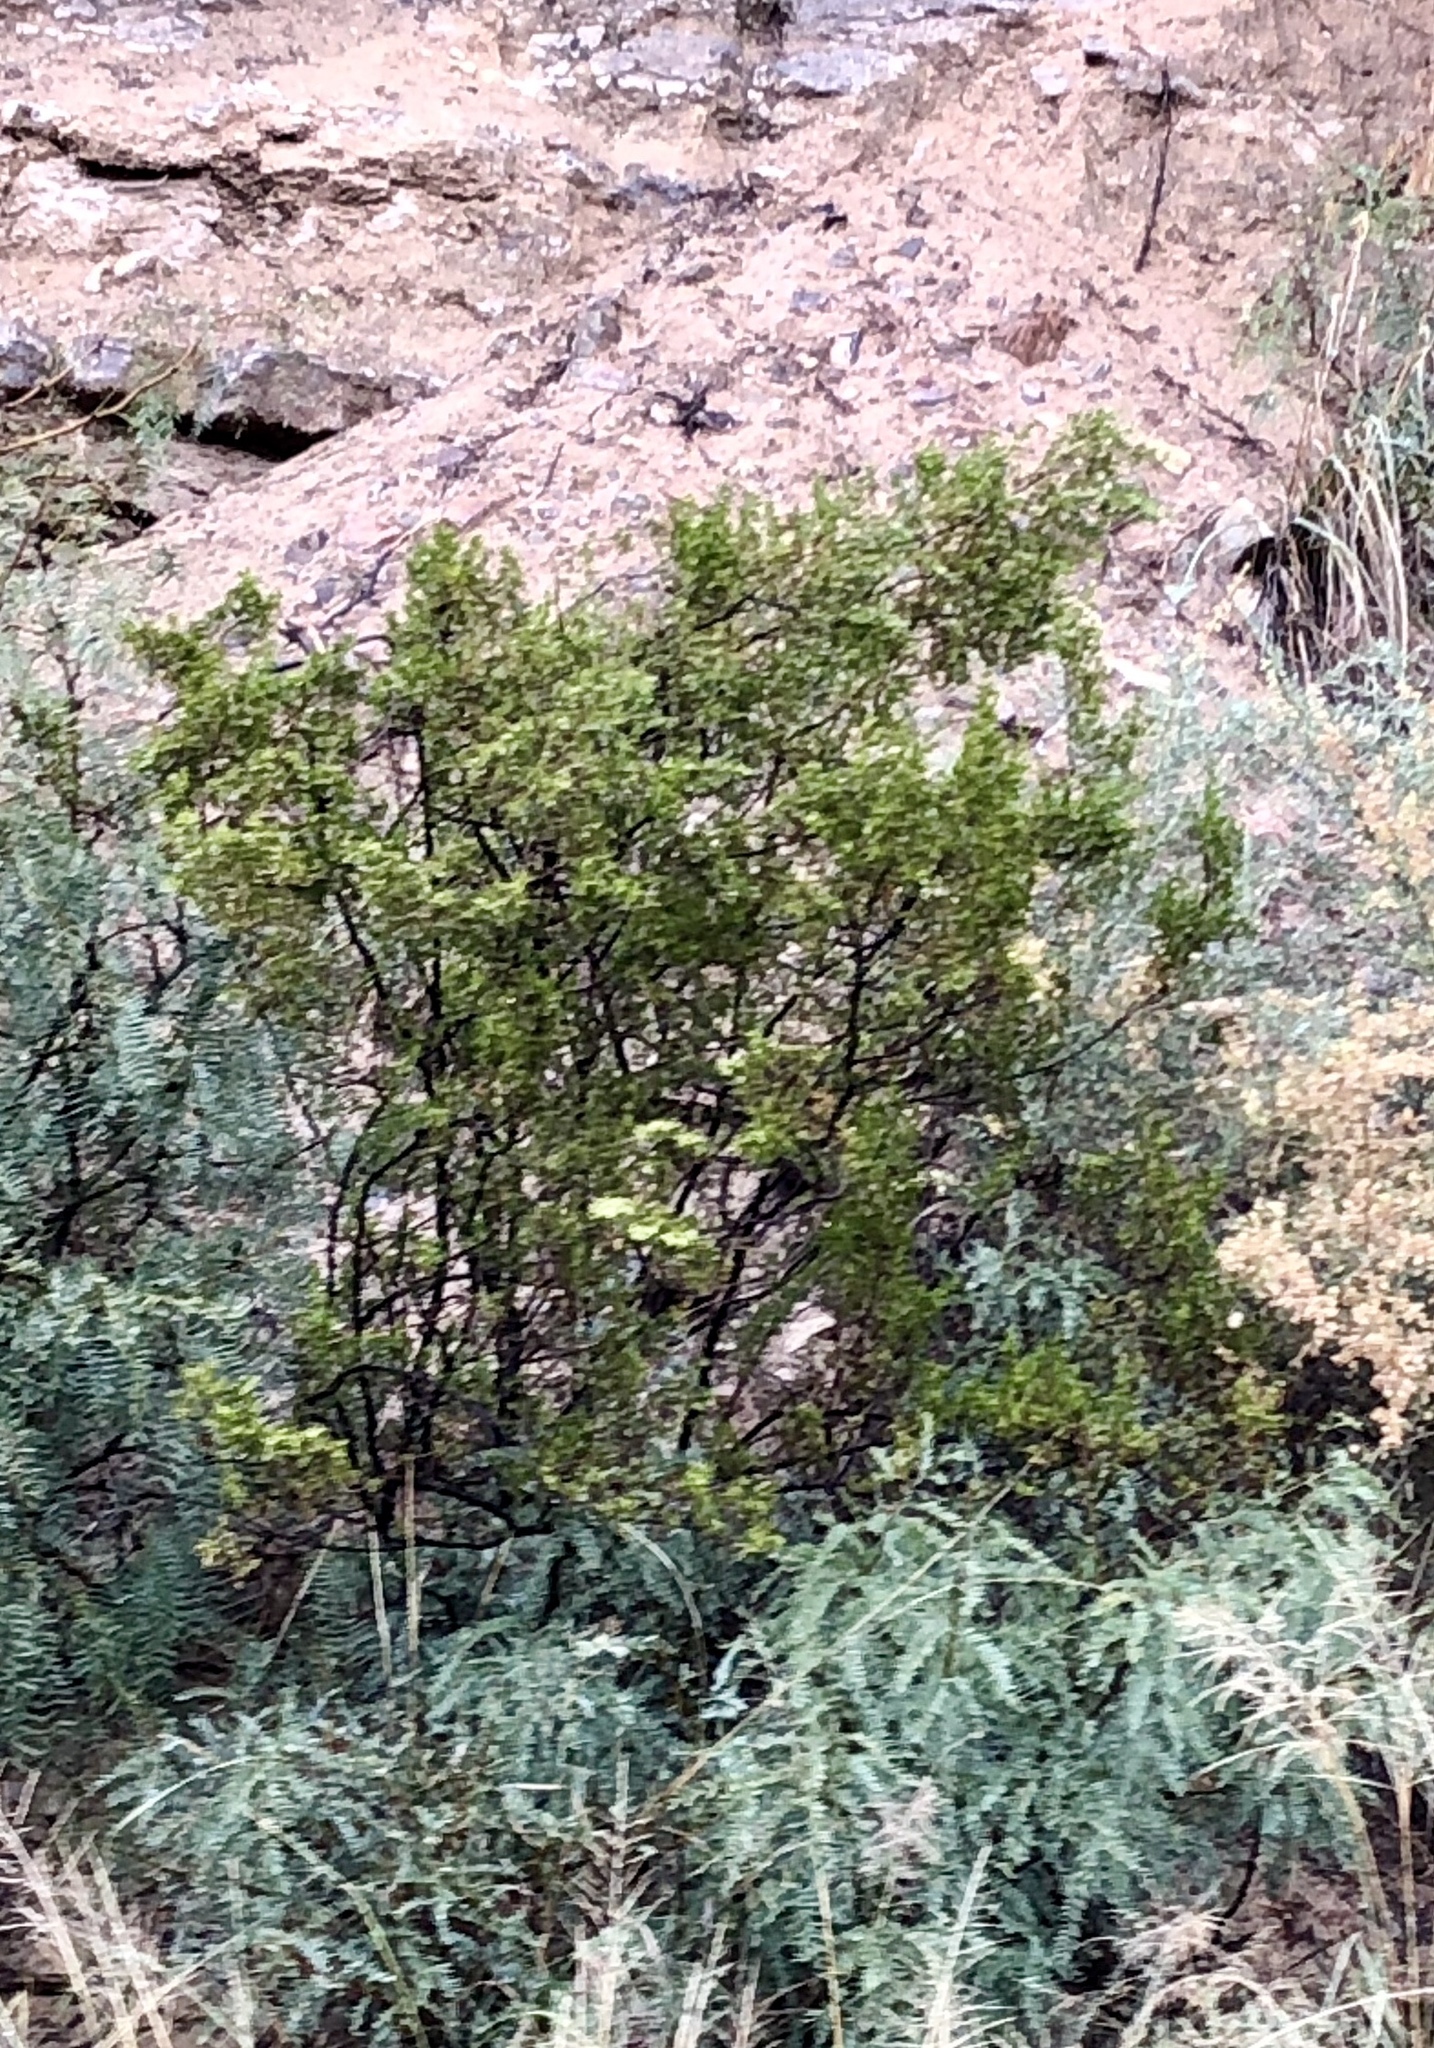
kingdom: Plantae
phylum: Tracheophyta
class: Magnoliopsida
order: Zygophyllales
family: Zygophyllaceae
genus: Larrea
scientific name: Larrea tridentata
